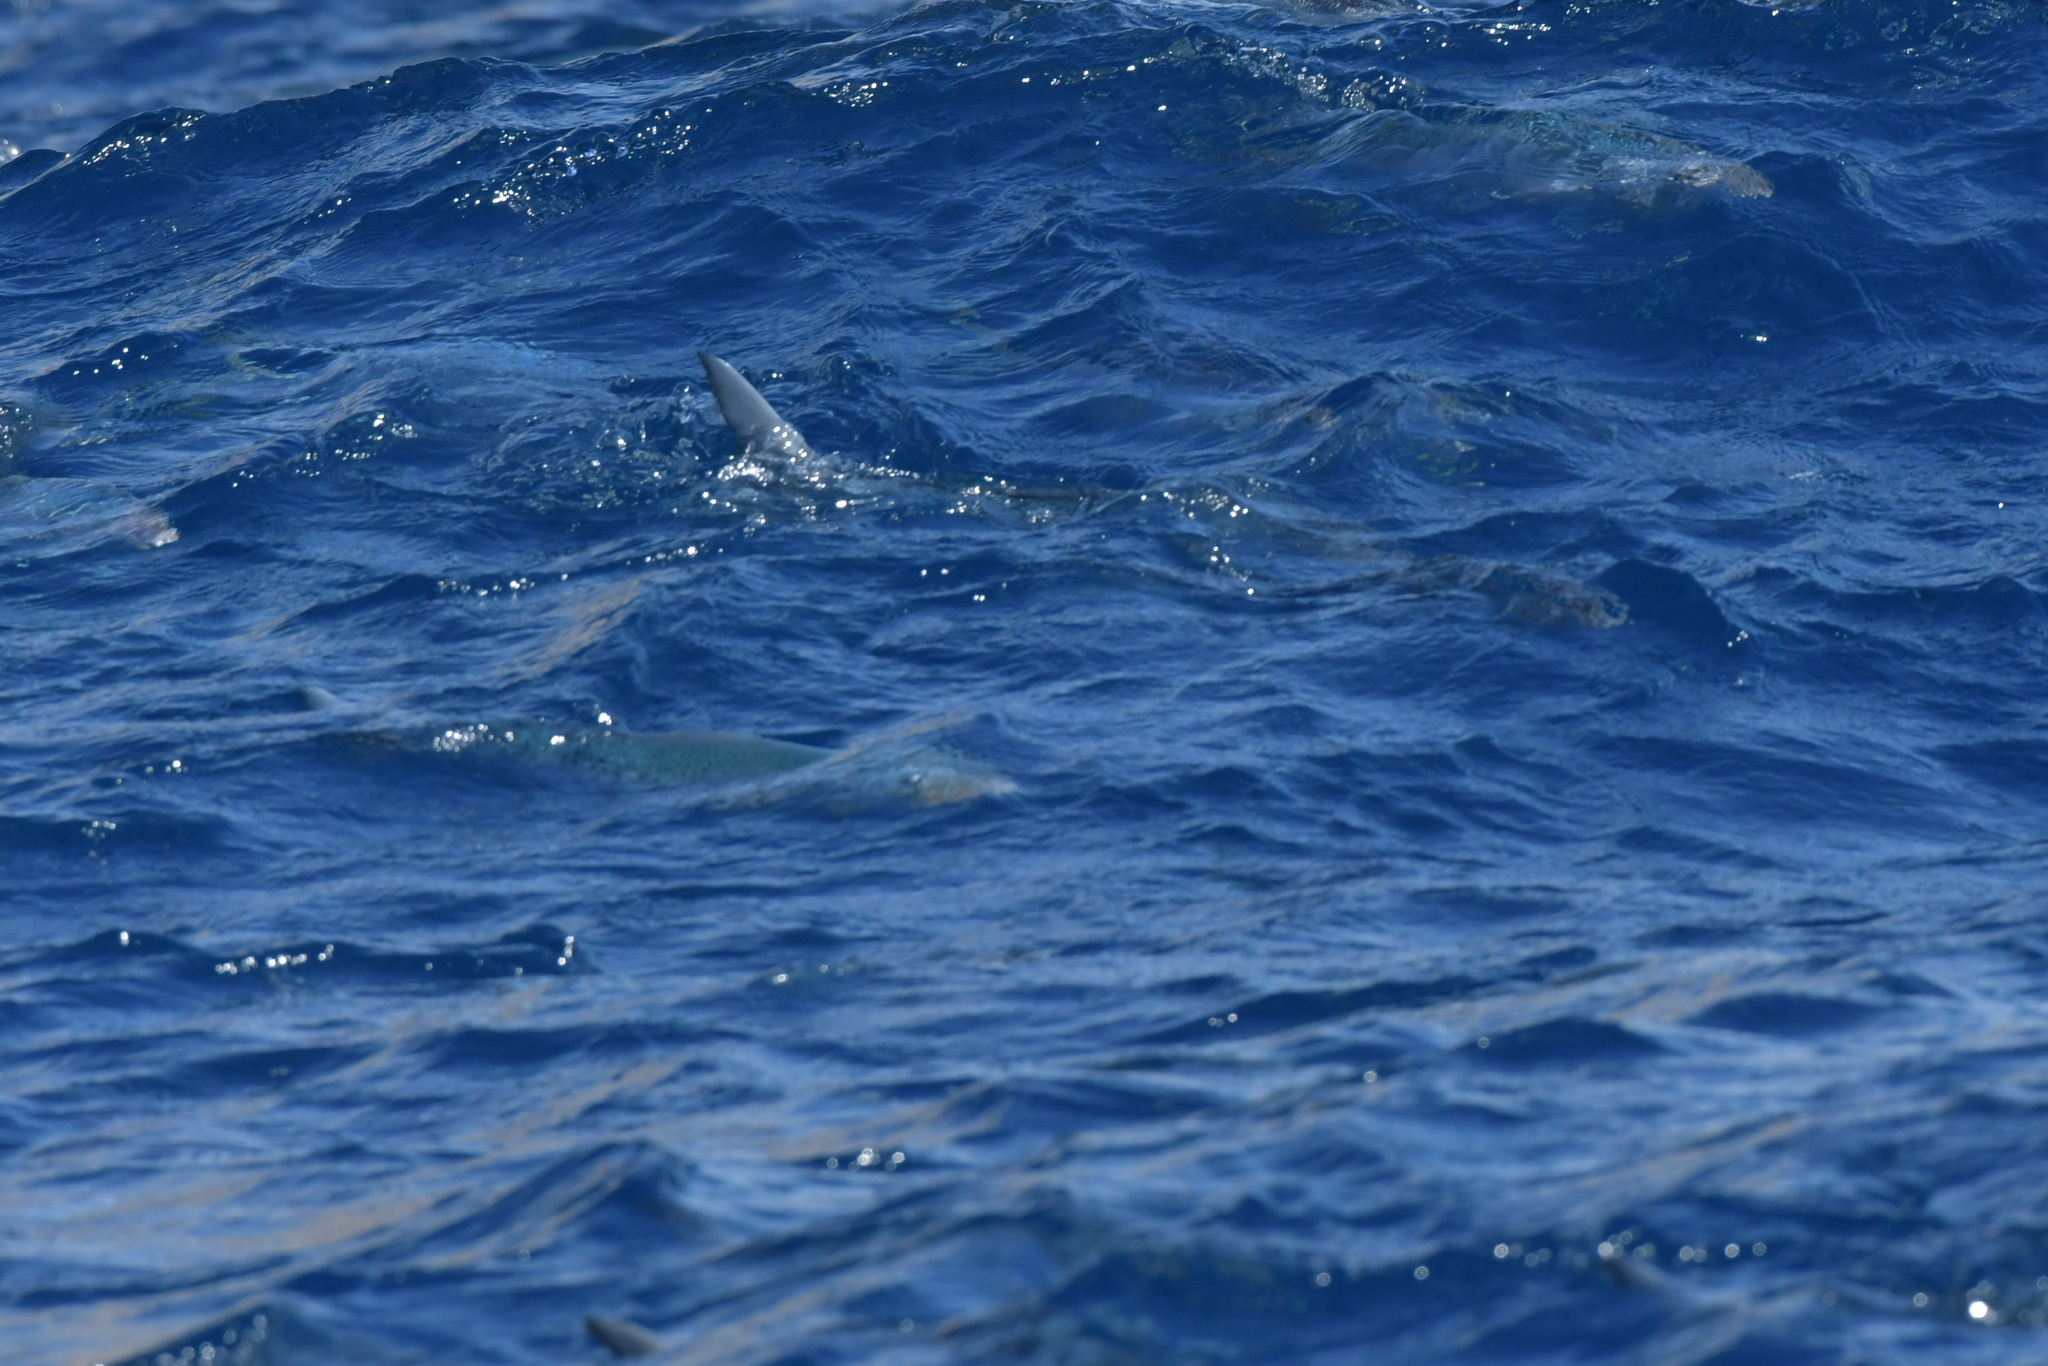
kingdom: Animalia
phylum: Chordata
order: Perciformes
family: Arripidae
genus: Arripis
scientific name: Arripis trutta
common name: Kahawai
